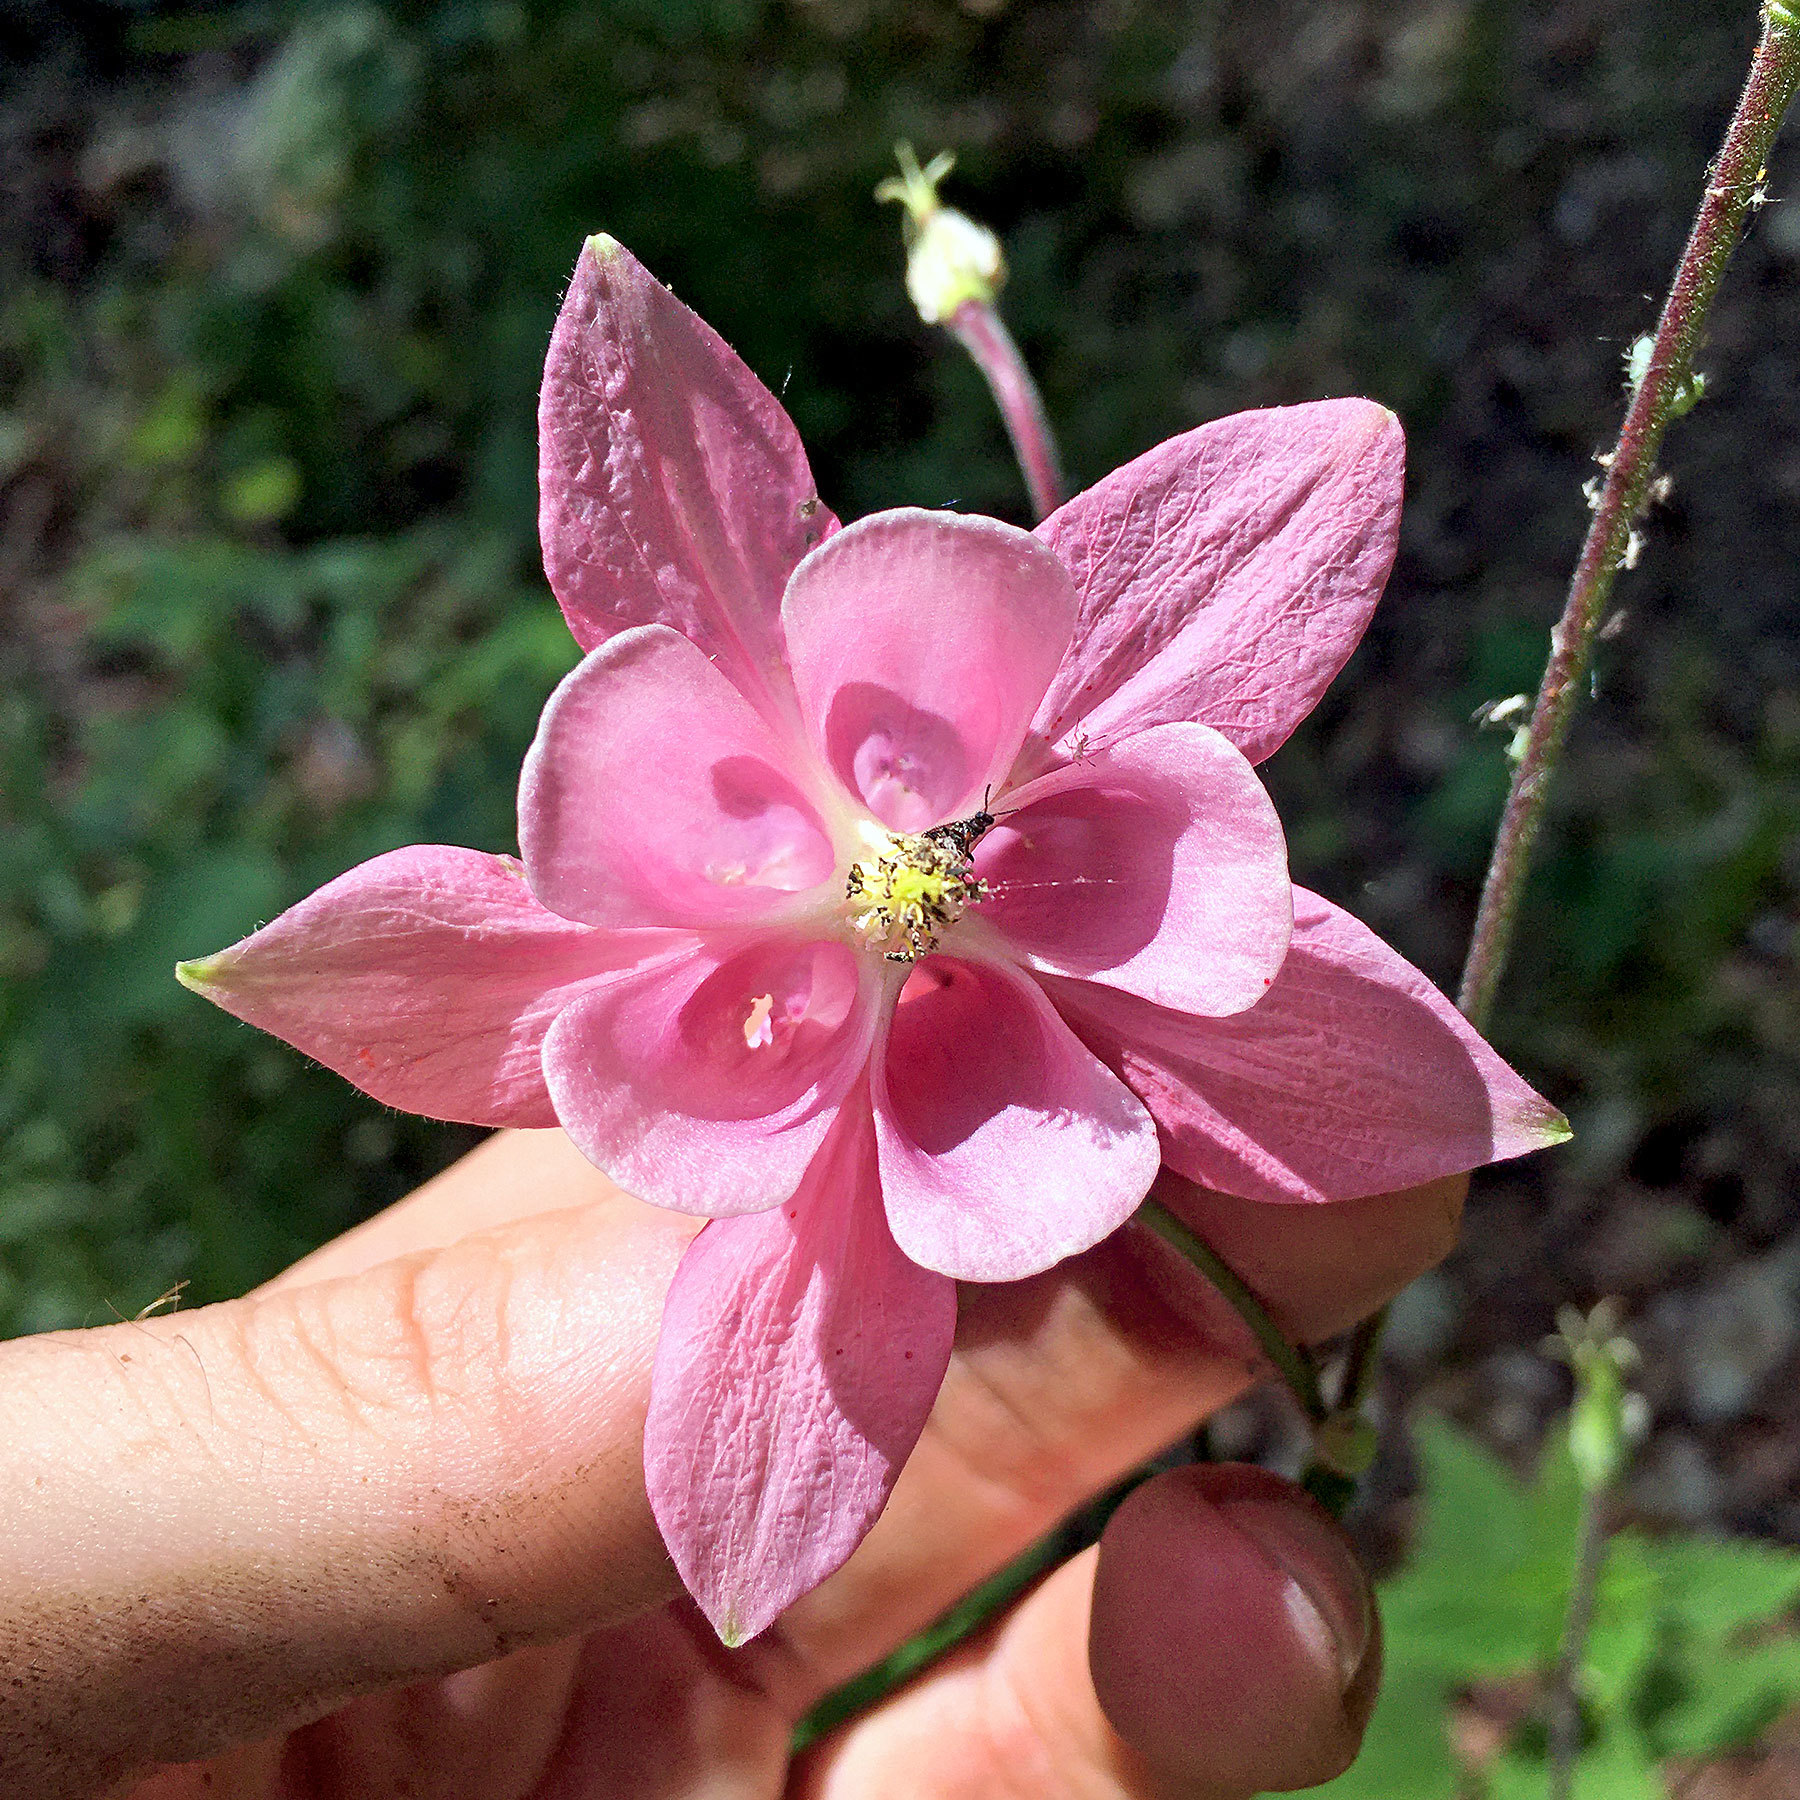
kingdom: Plantae
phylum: Tracheophyta
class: Magnoliopsida
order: Ranunculales
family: Ranunculaceae
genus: Aquilegia
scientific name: Aquilegia vulgaris
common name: Columbine
